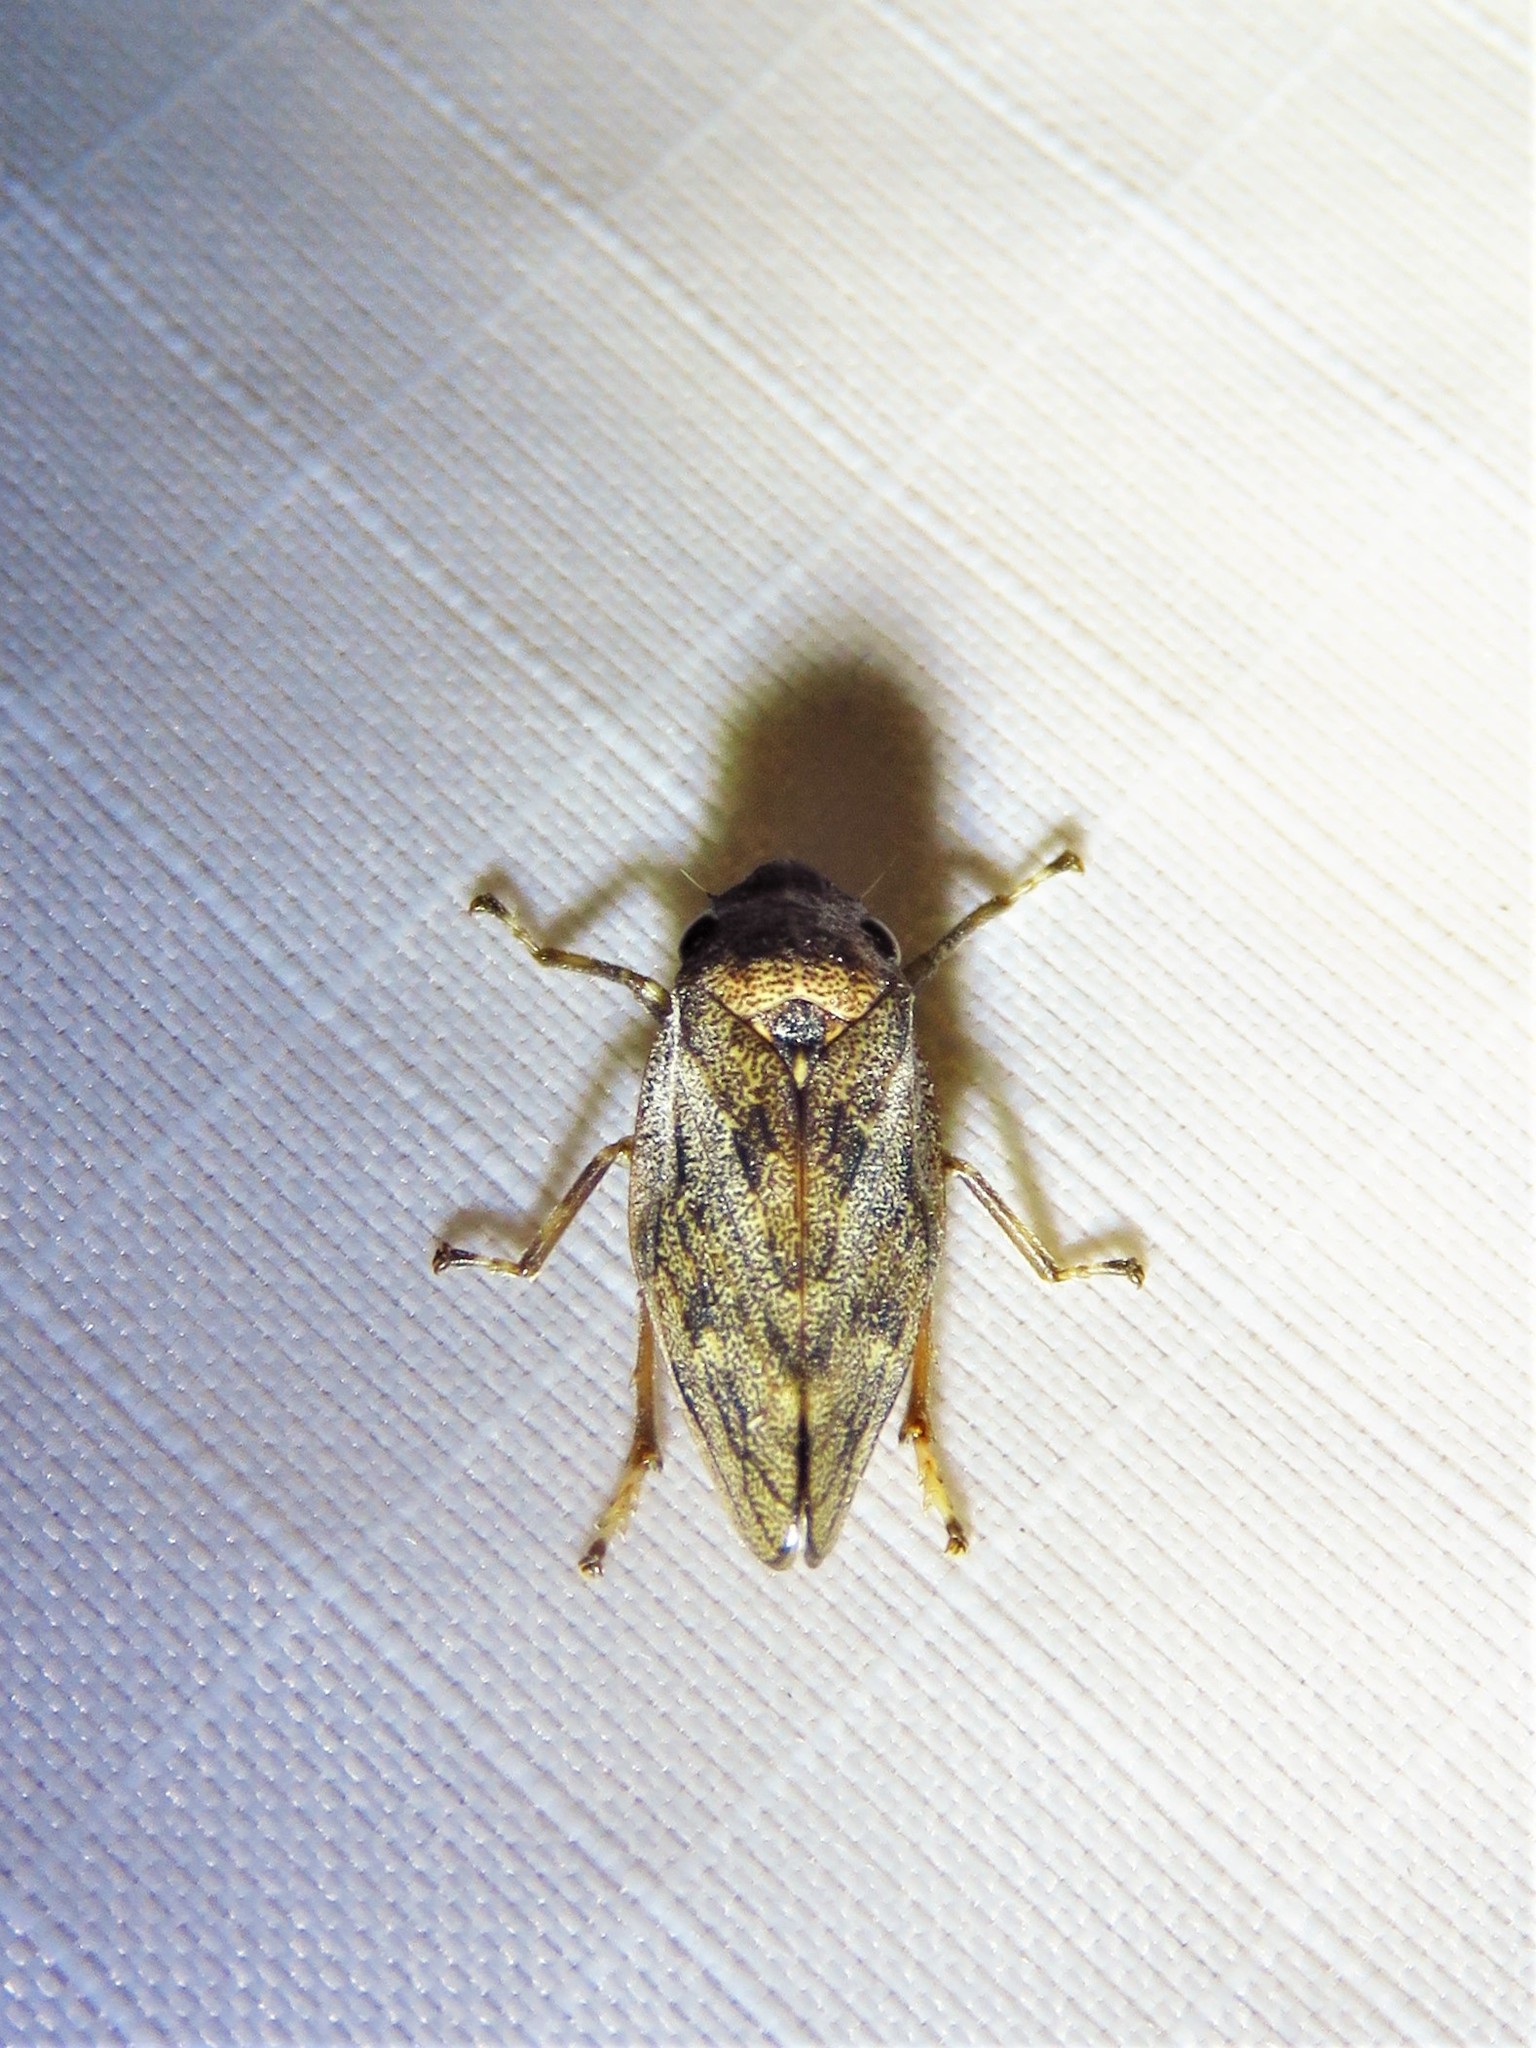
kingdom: Animalia
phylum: Arthropoda
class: Insecta
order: Hemiptera
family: Epipygidae
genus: Epipyga
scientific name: Epipyga cribrata
